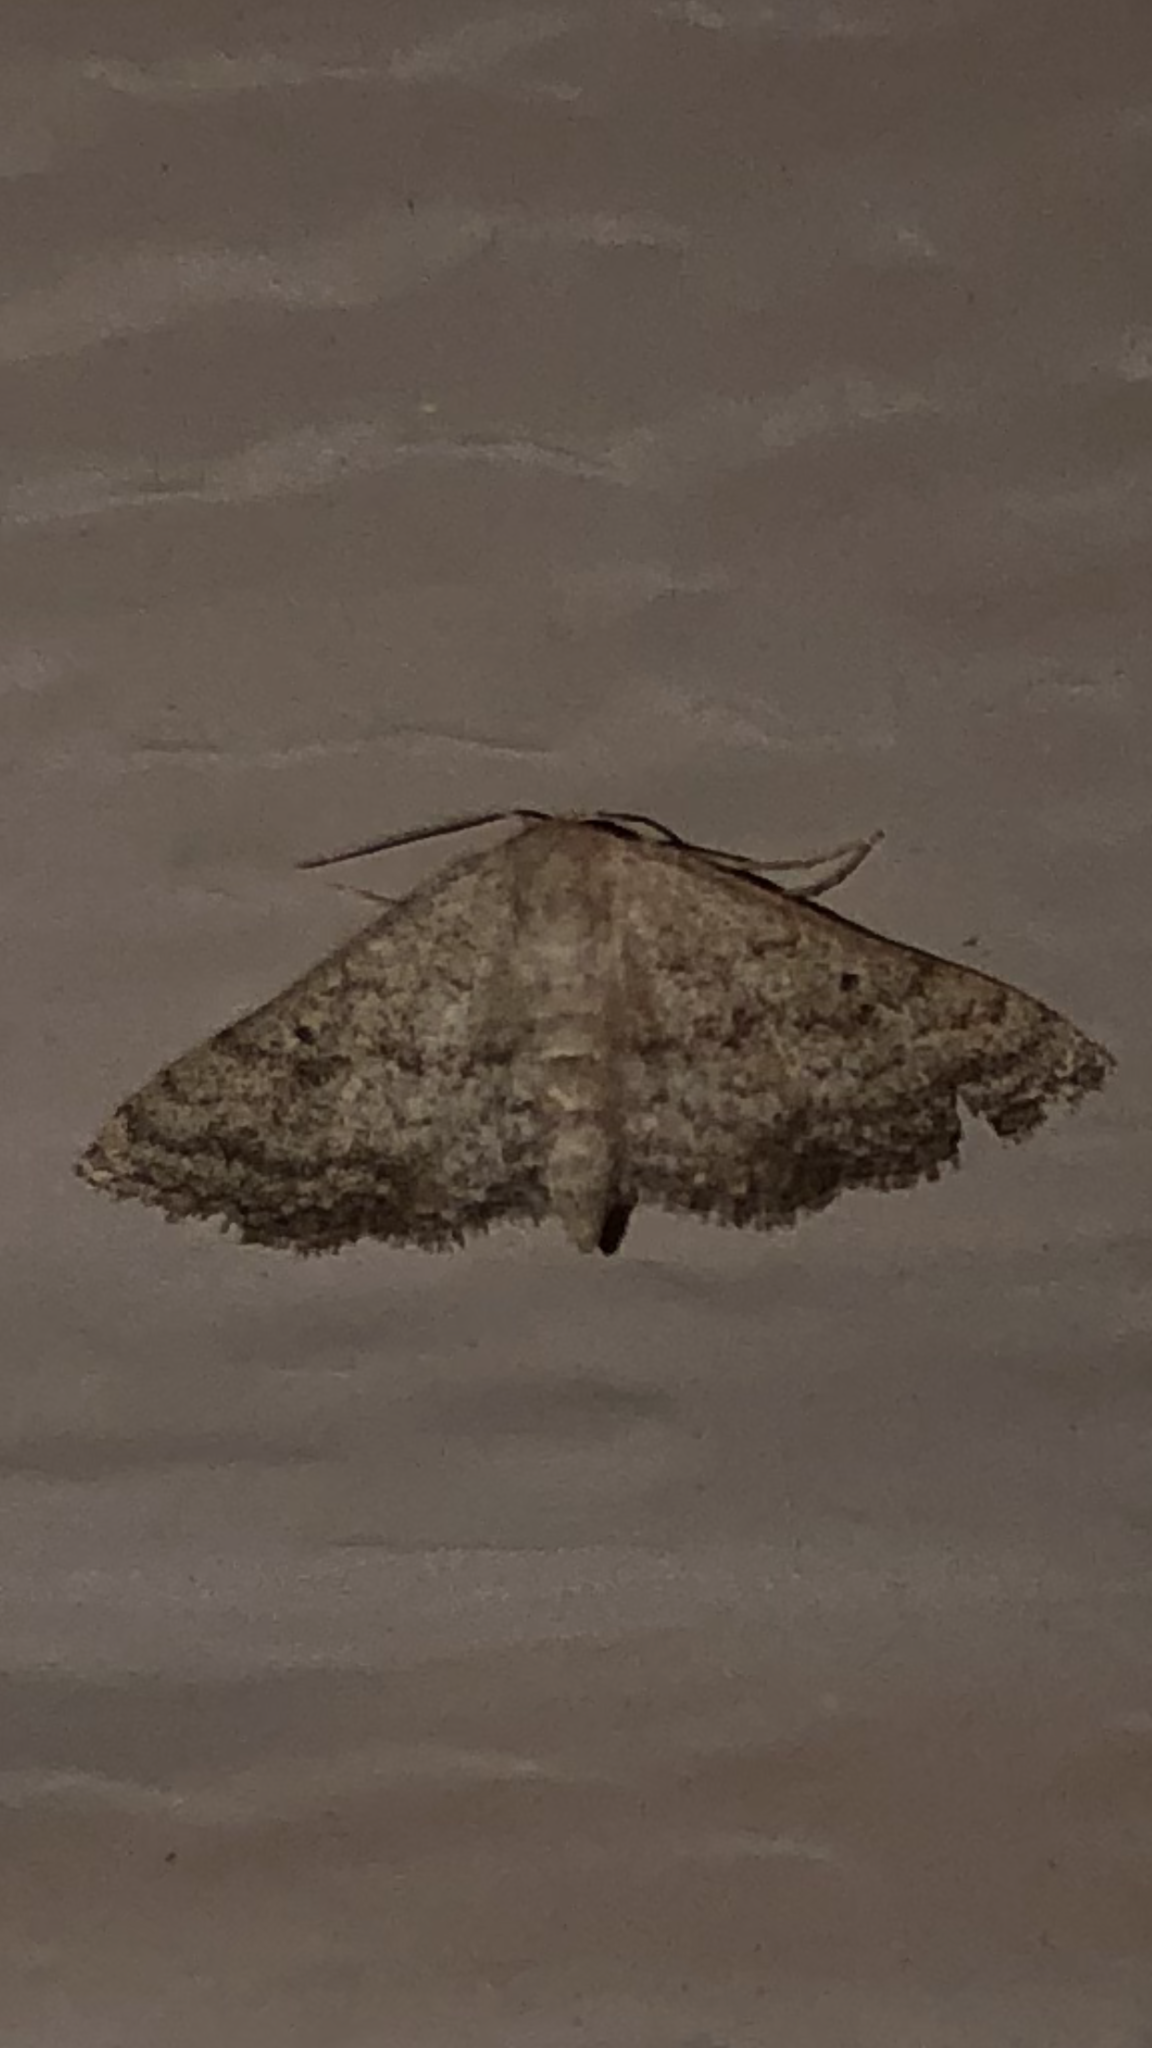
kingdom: Animalia
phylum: Arthropoda
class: Insecta
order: Lepidoptera
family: Geometridae
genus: Lobocleta
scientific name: Lobocleta ossularia
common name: Drab brown wave
